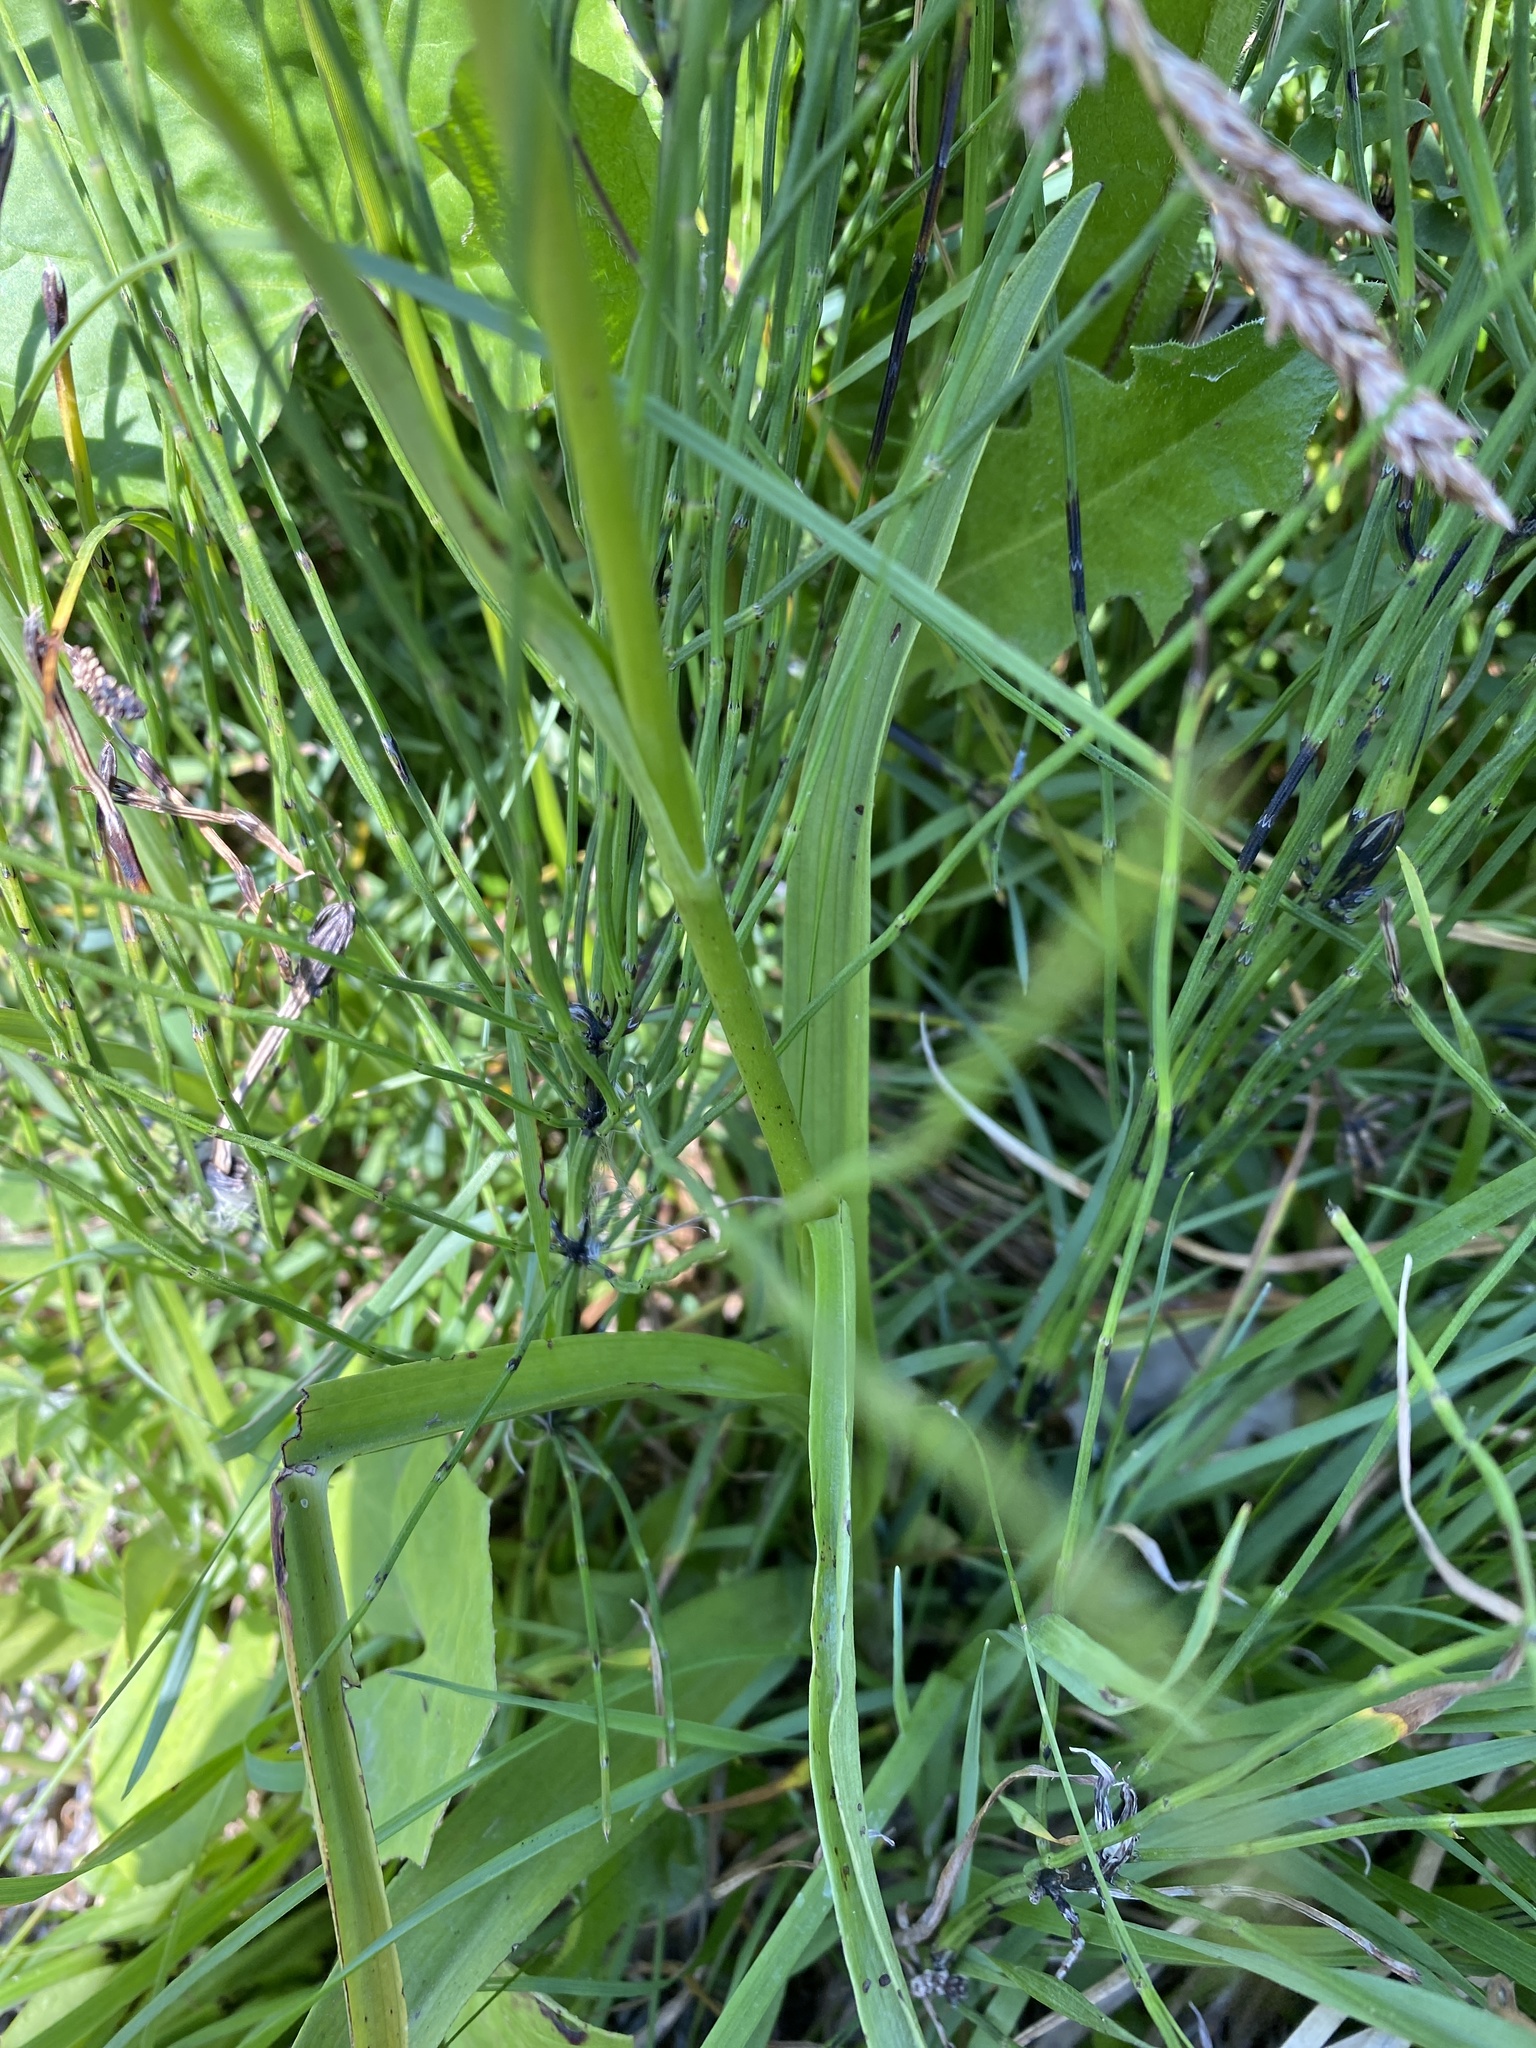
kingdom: Plantae
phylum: Tracheophyta
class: Liliopsida
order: Asparagales
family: Orchidaceae
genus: Gymnadenia
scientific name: Gymnadenia conopsea
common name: Fragrant orchid
